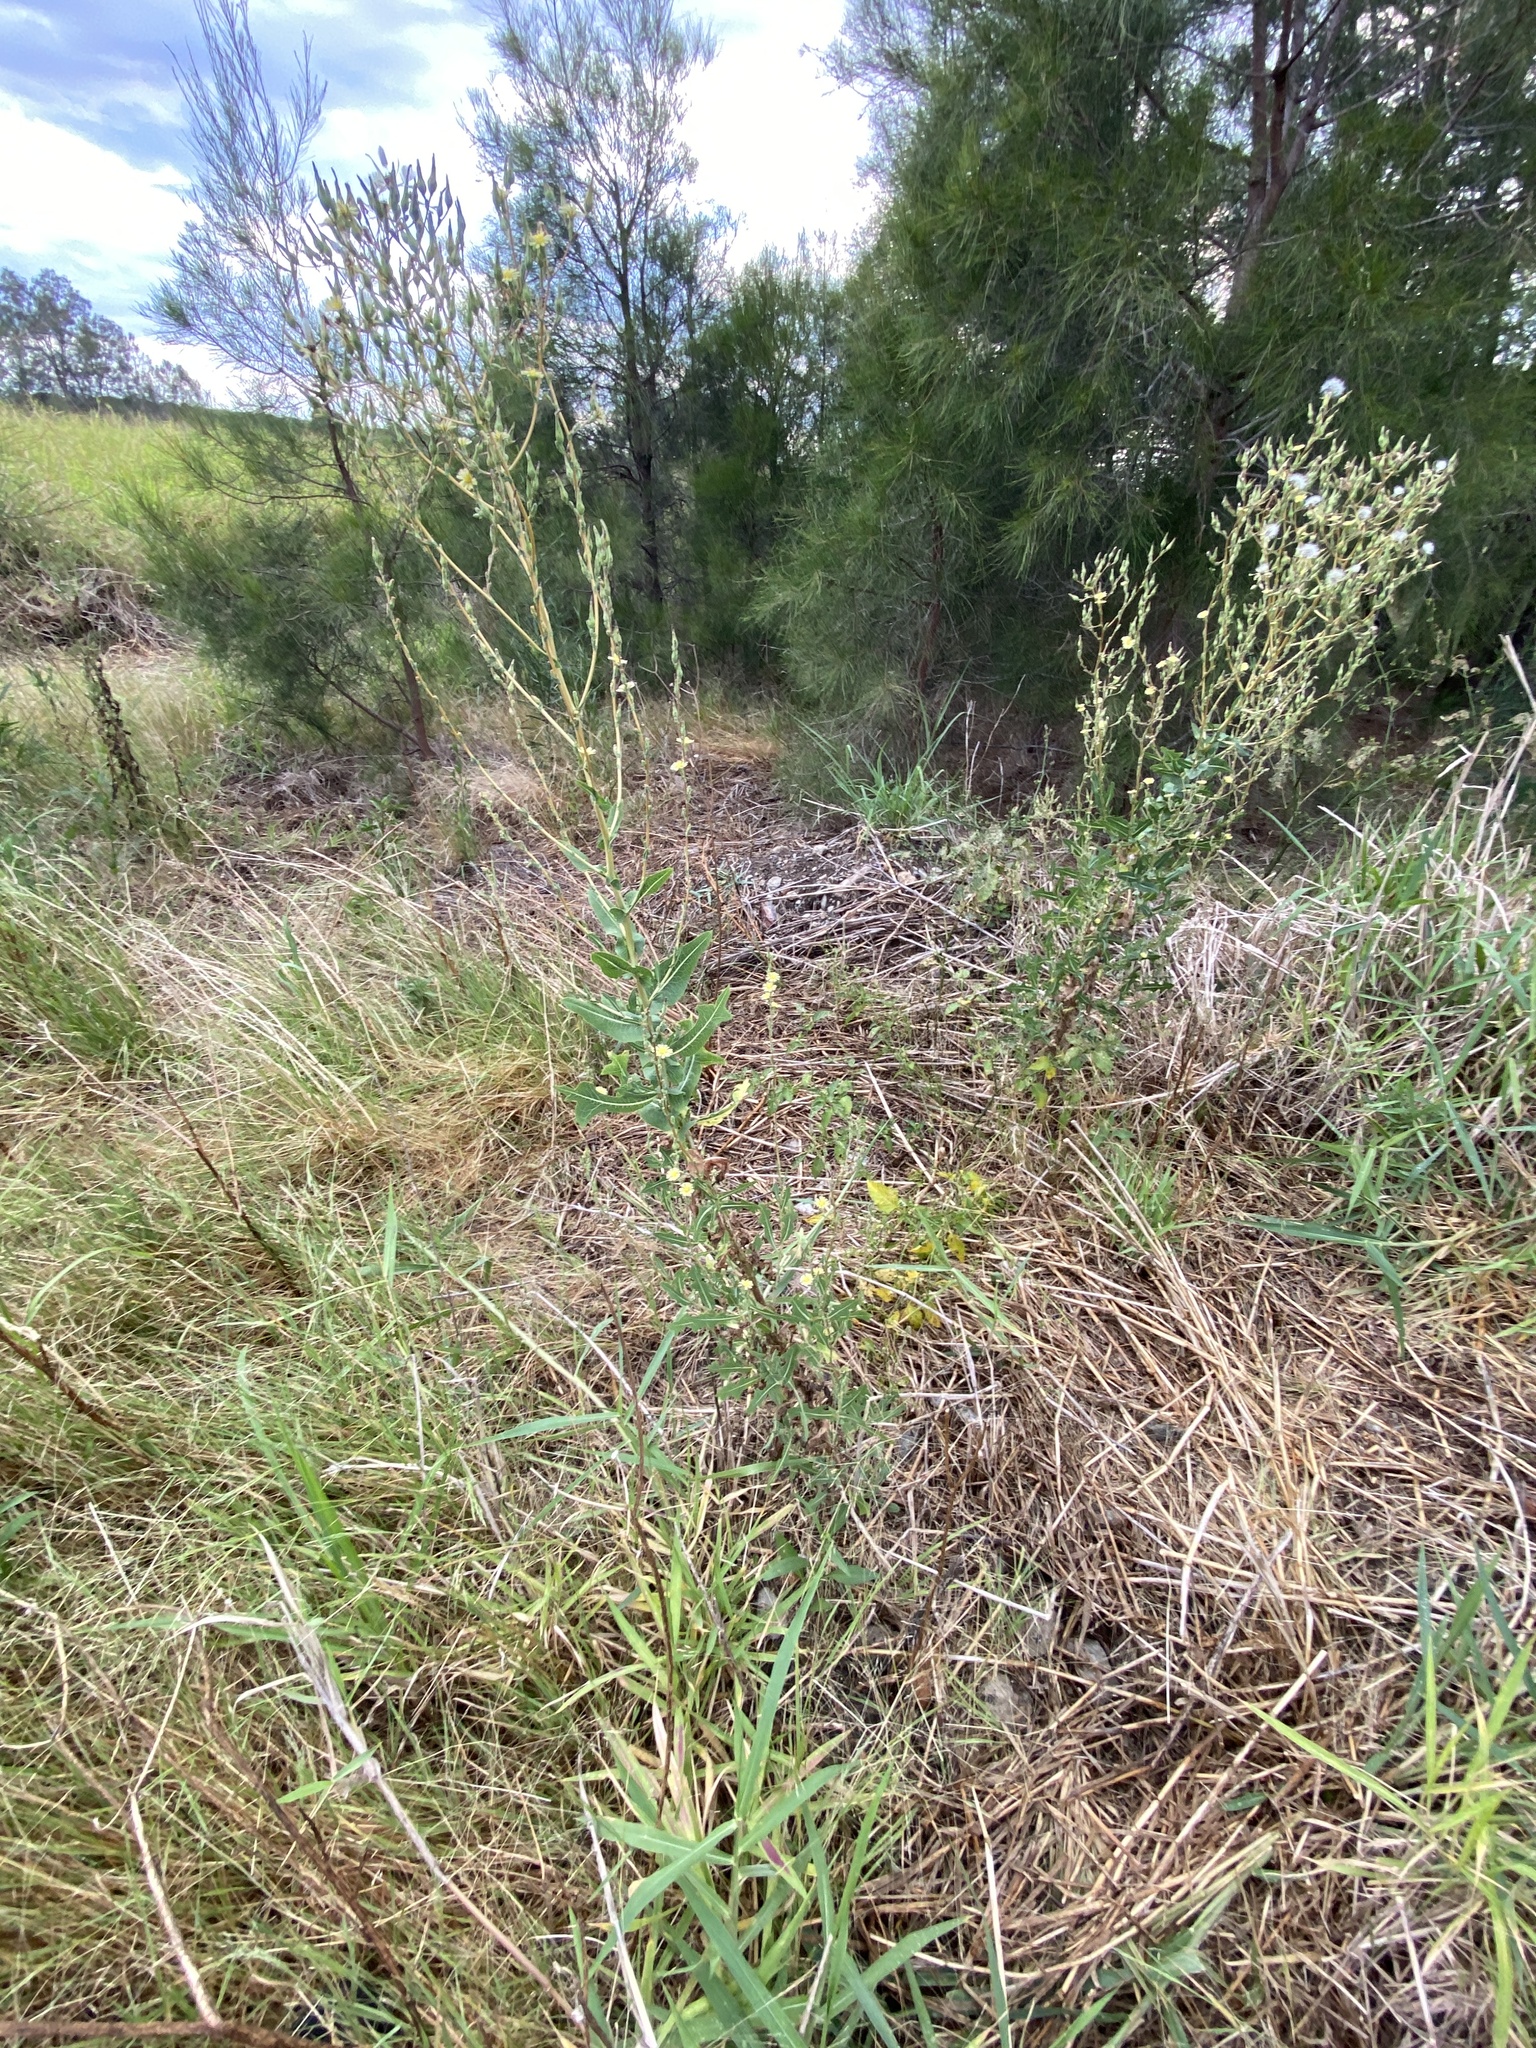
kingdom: Plantae
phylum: Tracheophyta
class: Magnoliopsida
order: Asterales
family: Asteraceae
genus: Lactuca
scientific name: Lactuca serriola
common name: Prickly lettuce
